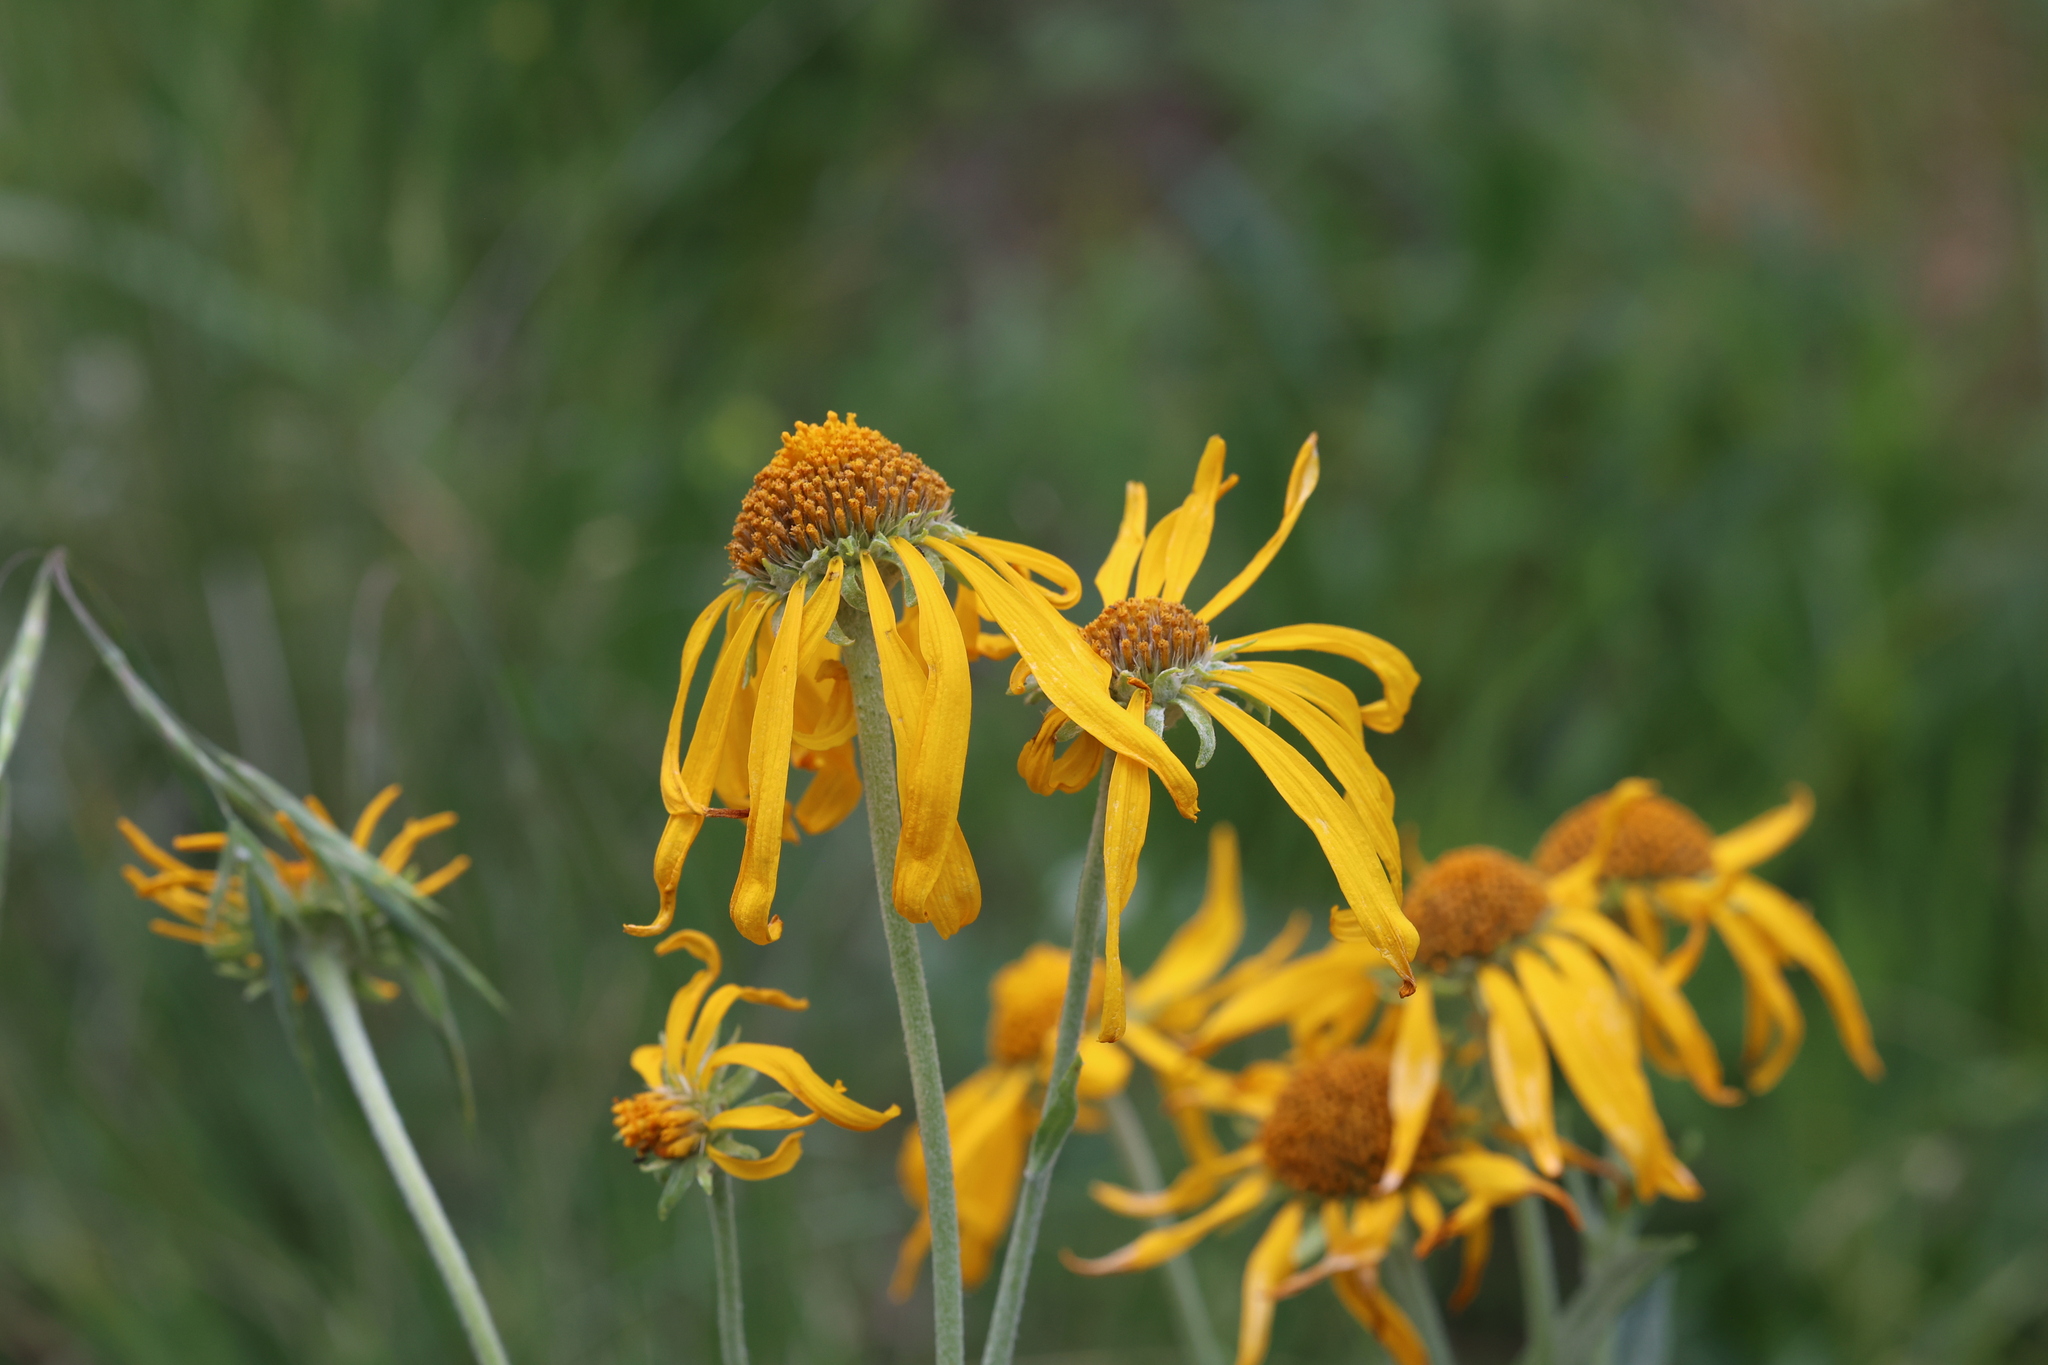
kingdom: Plantae
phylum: Tracheophyta
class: Magnoliopsida
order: Asterales
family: Asteraceae
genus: Hymenoxys
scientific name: Hymenoxys hoopesii
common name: Orange-sneezeweed
